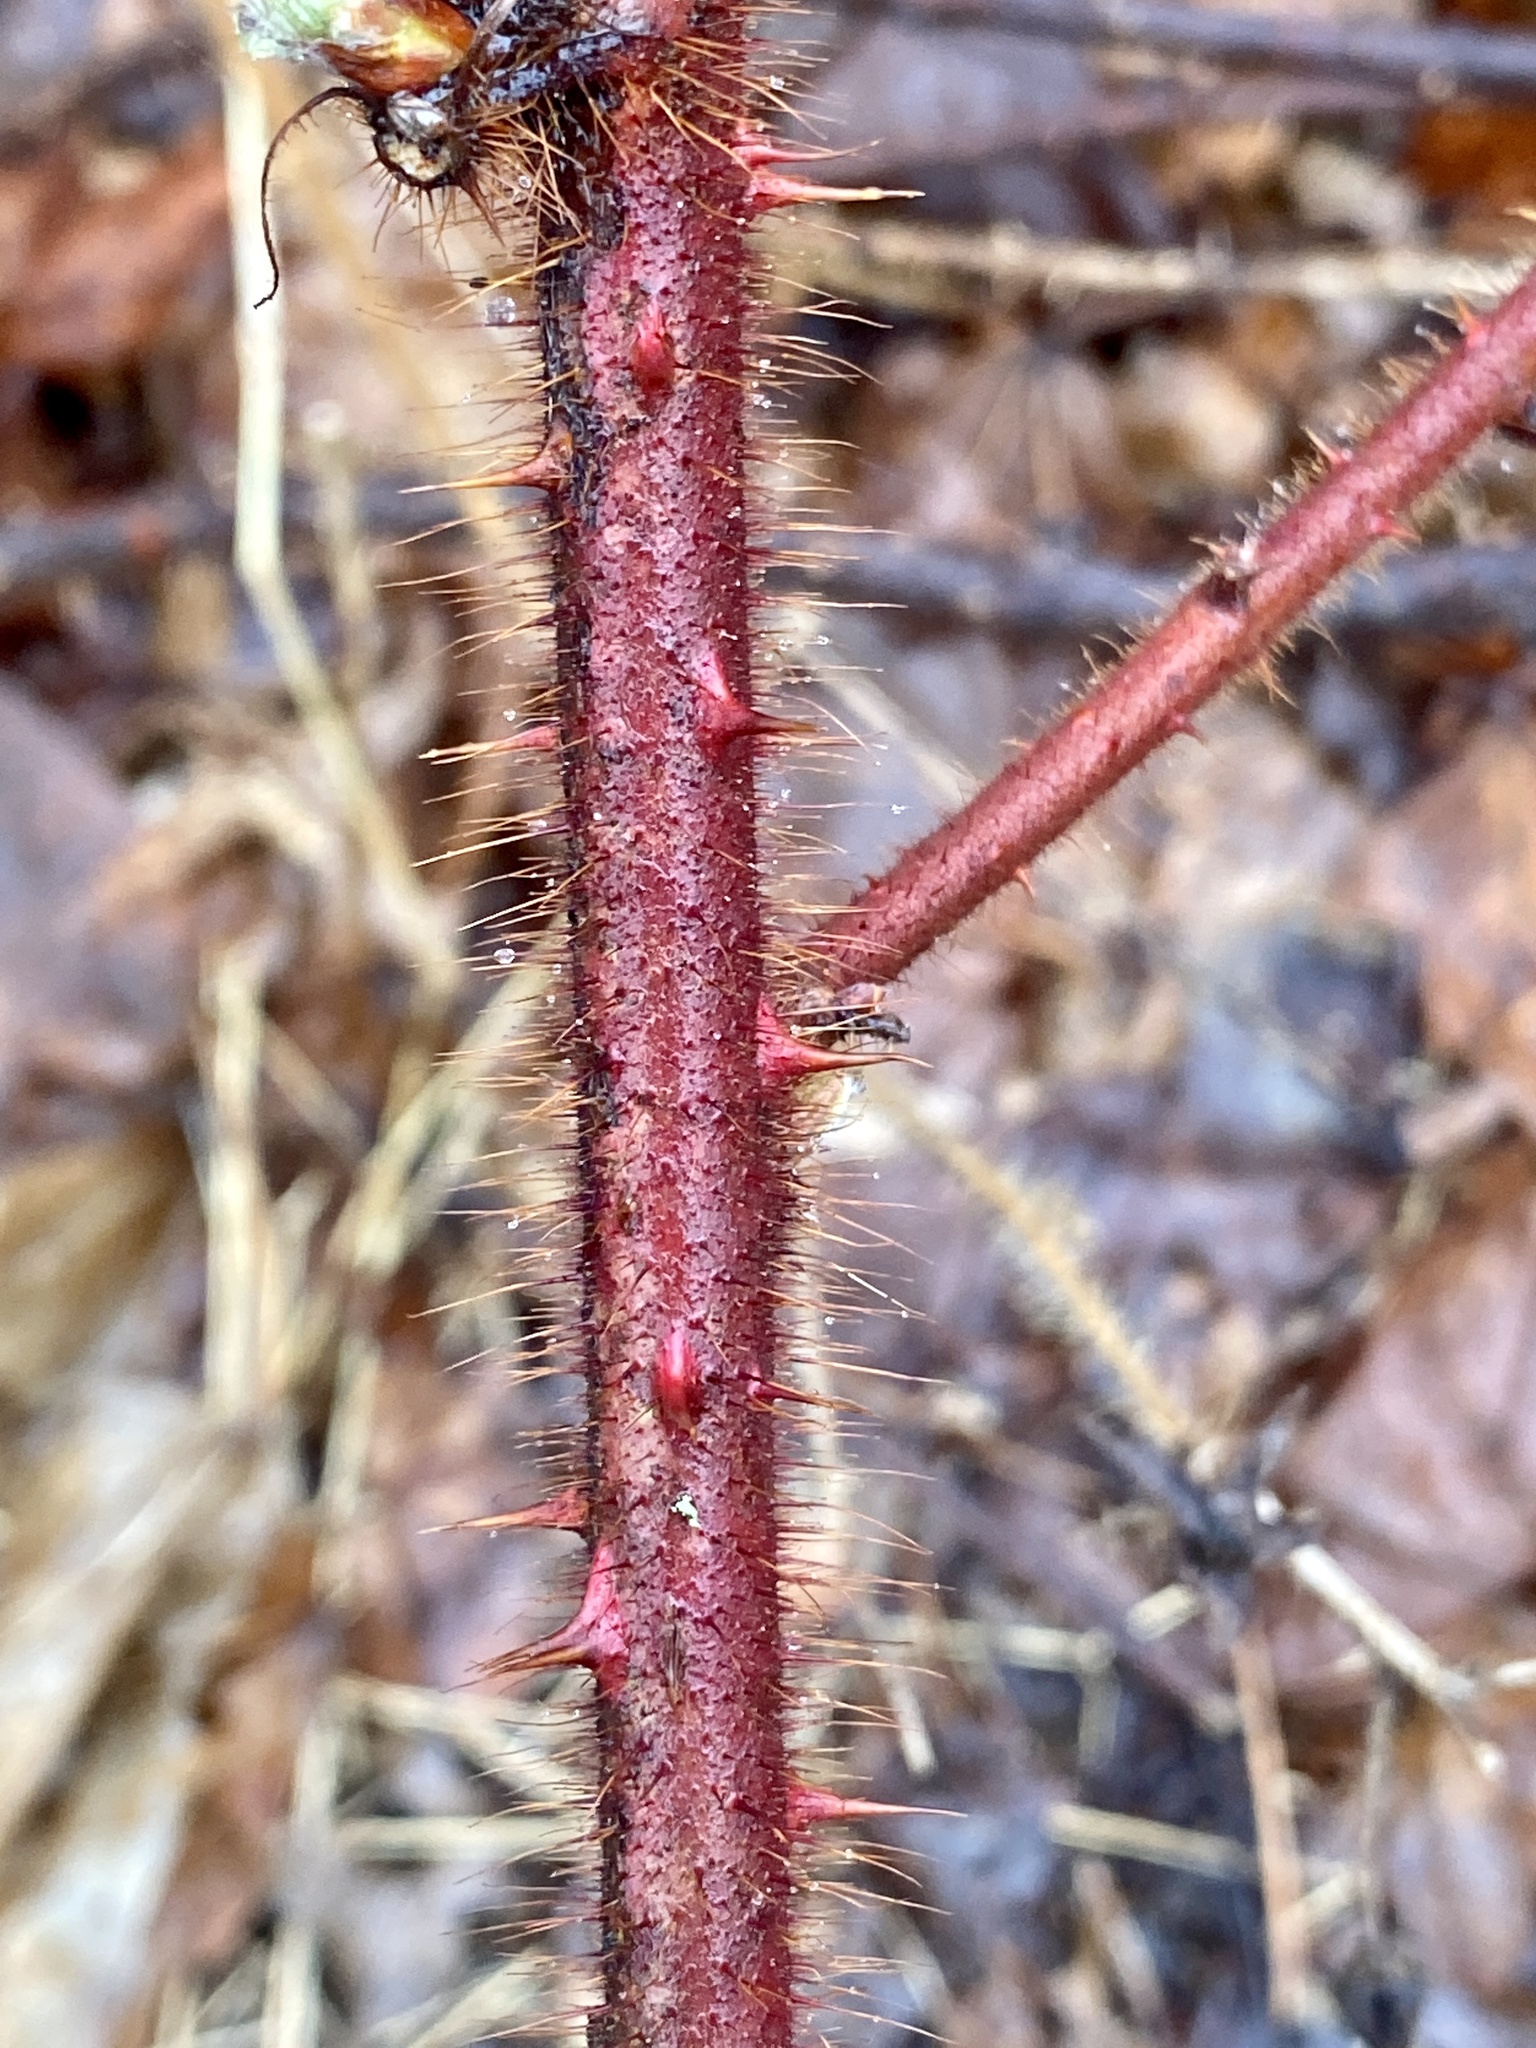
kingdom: Plantae
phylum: Tracheophyta
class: Magnoliopsida
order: Rosales
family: Rosaceae
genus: Rubus
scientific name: Rubus phoenicolasius
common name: Japanese wineberry
